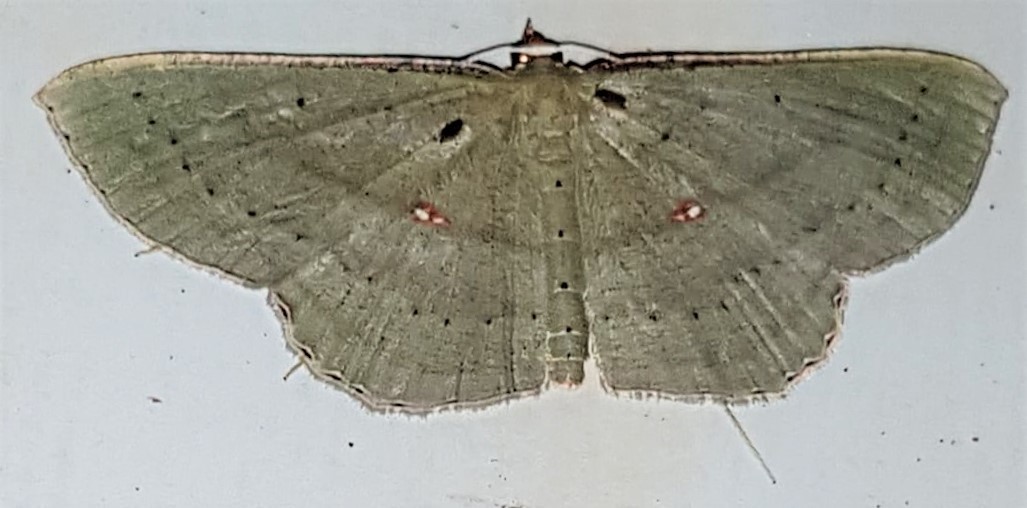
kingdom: Animalia
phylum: Arthropoda
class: Insecta
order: Lepidoptera
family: Geometridae
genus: Ametris
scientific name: Ametris nitocris
